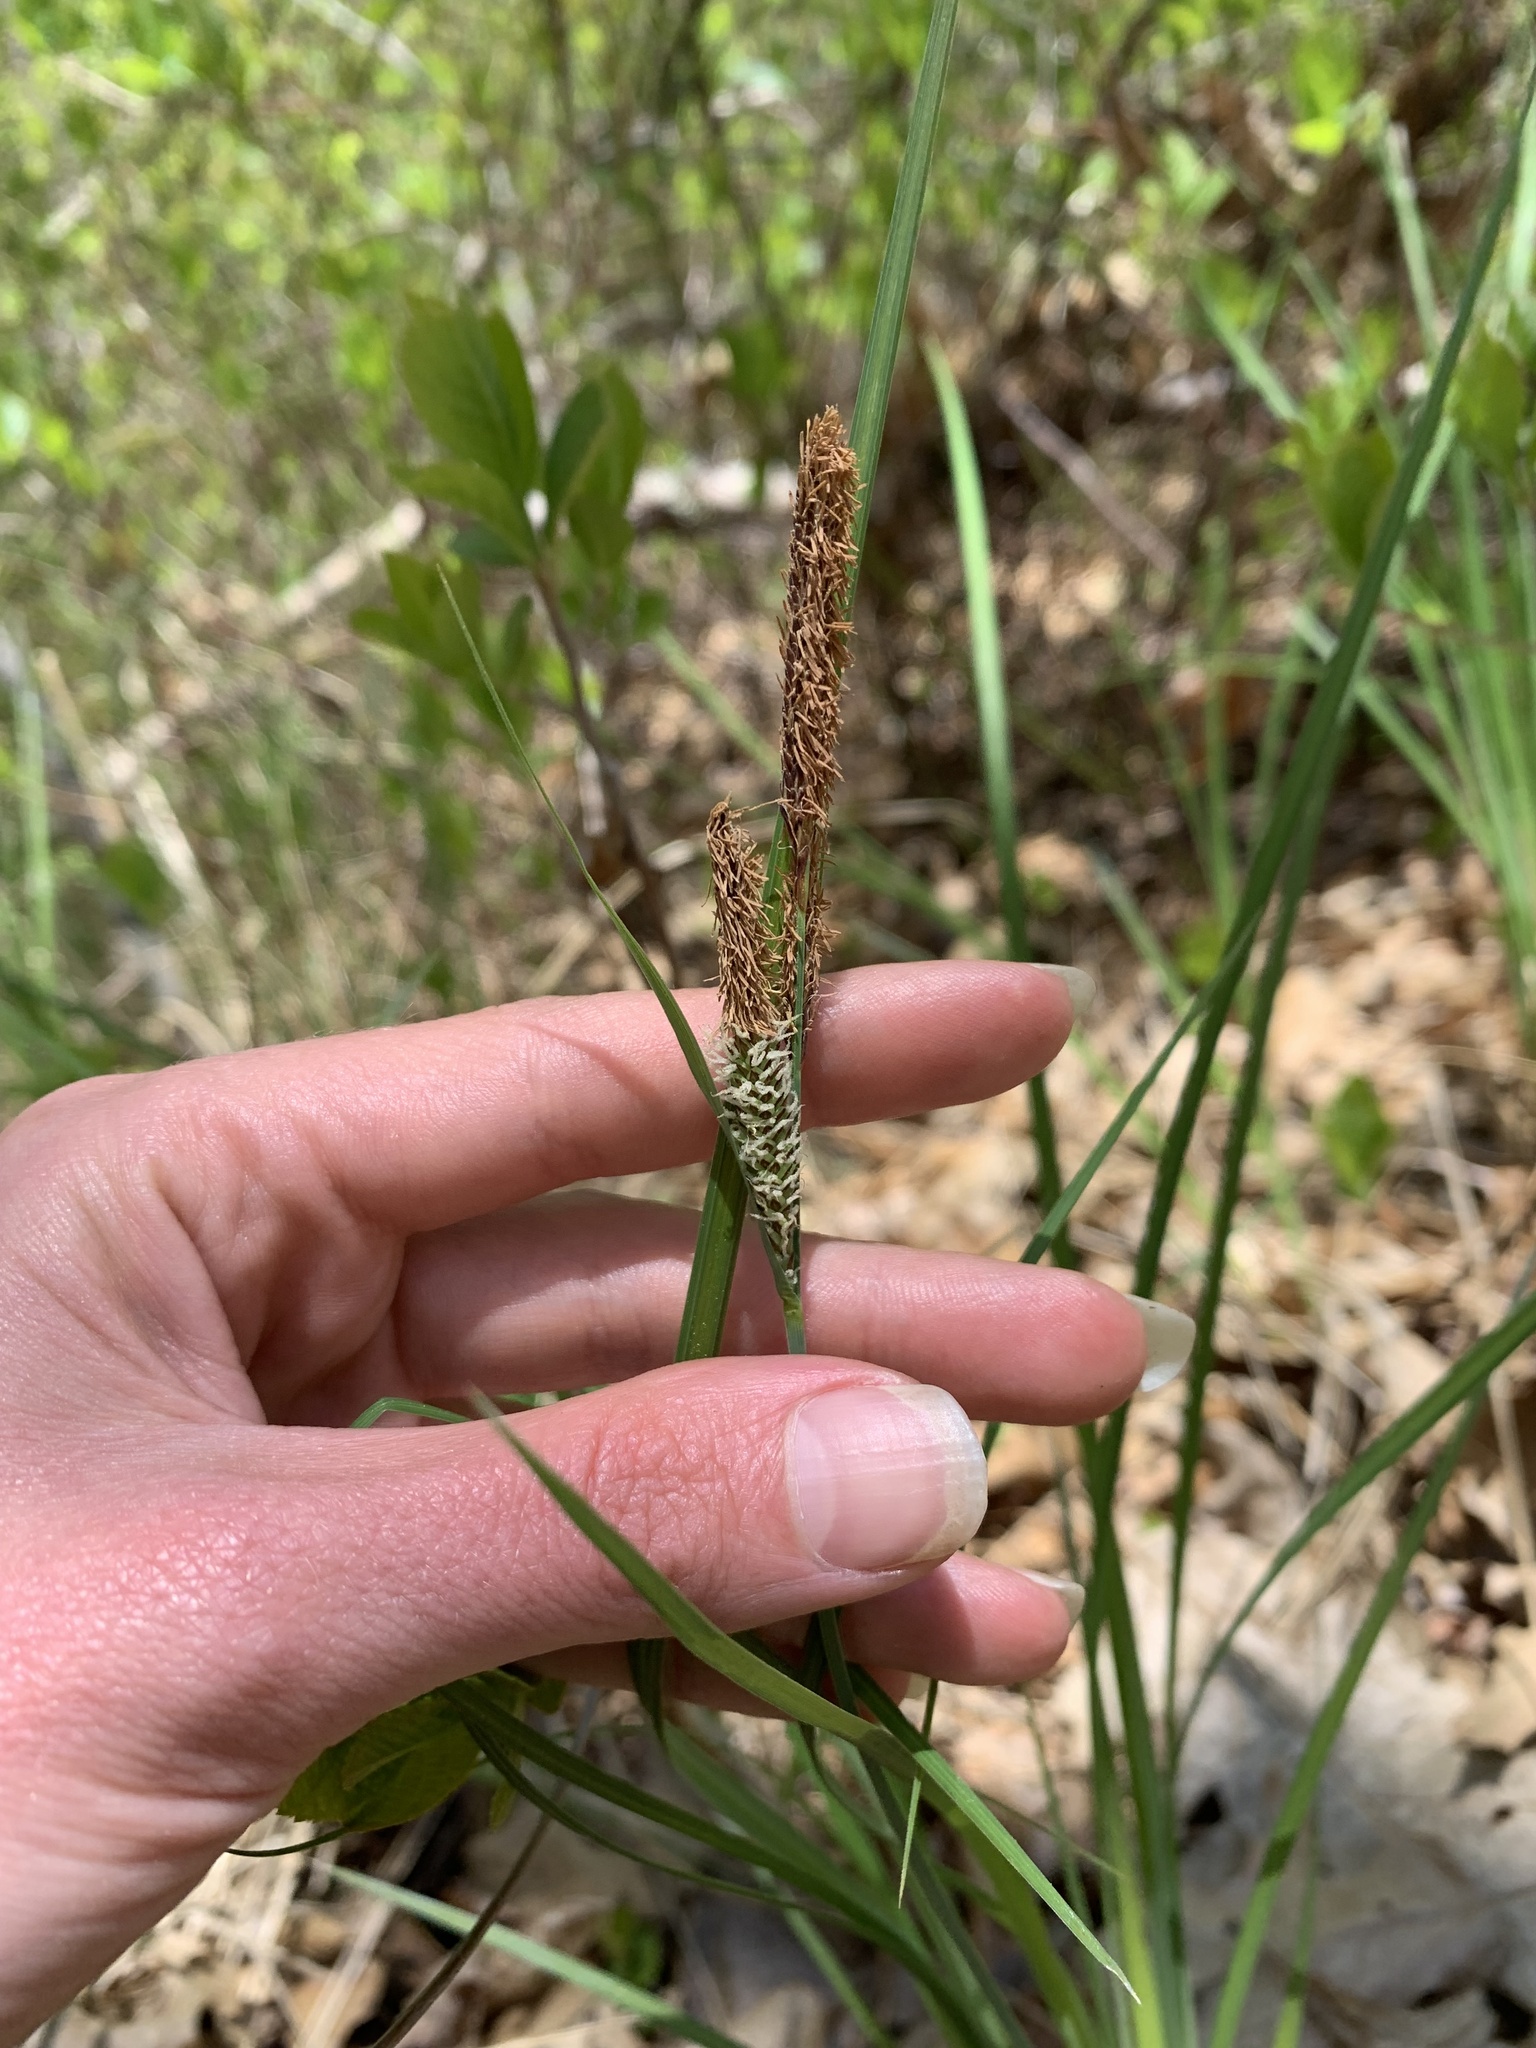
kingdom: Plantae
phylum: Tracheophyta
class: Liliopsida
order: Poales
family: Cyperaceae
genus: Carex
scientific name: Carex stricta
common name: Hummock sedge
